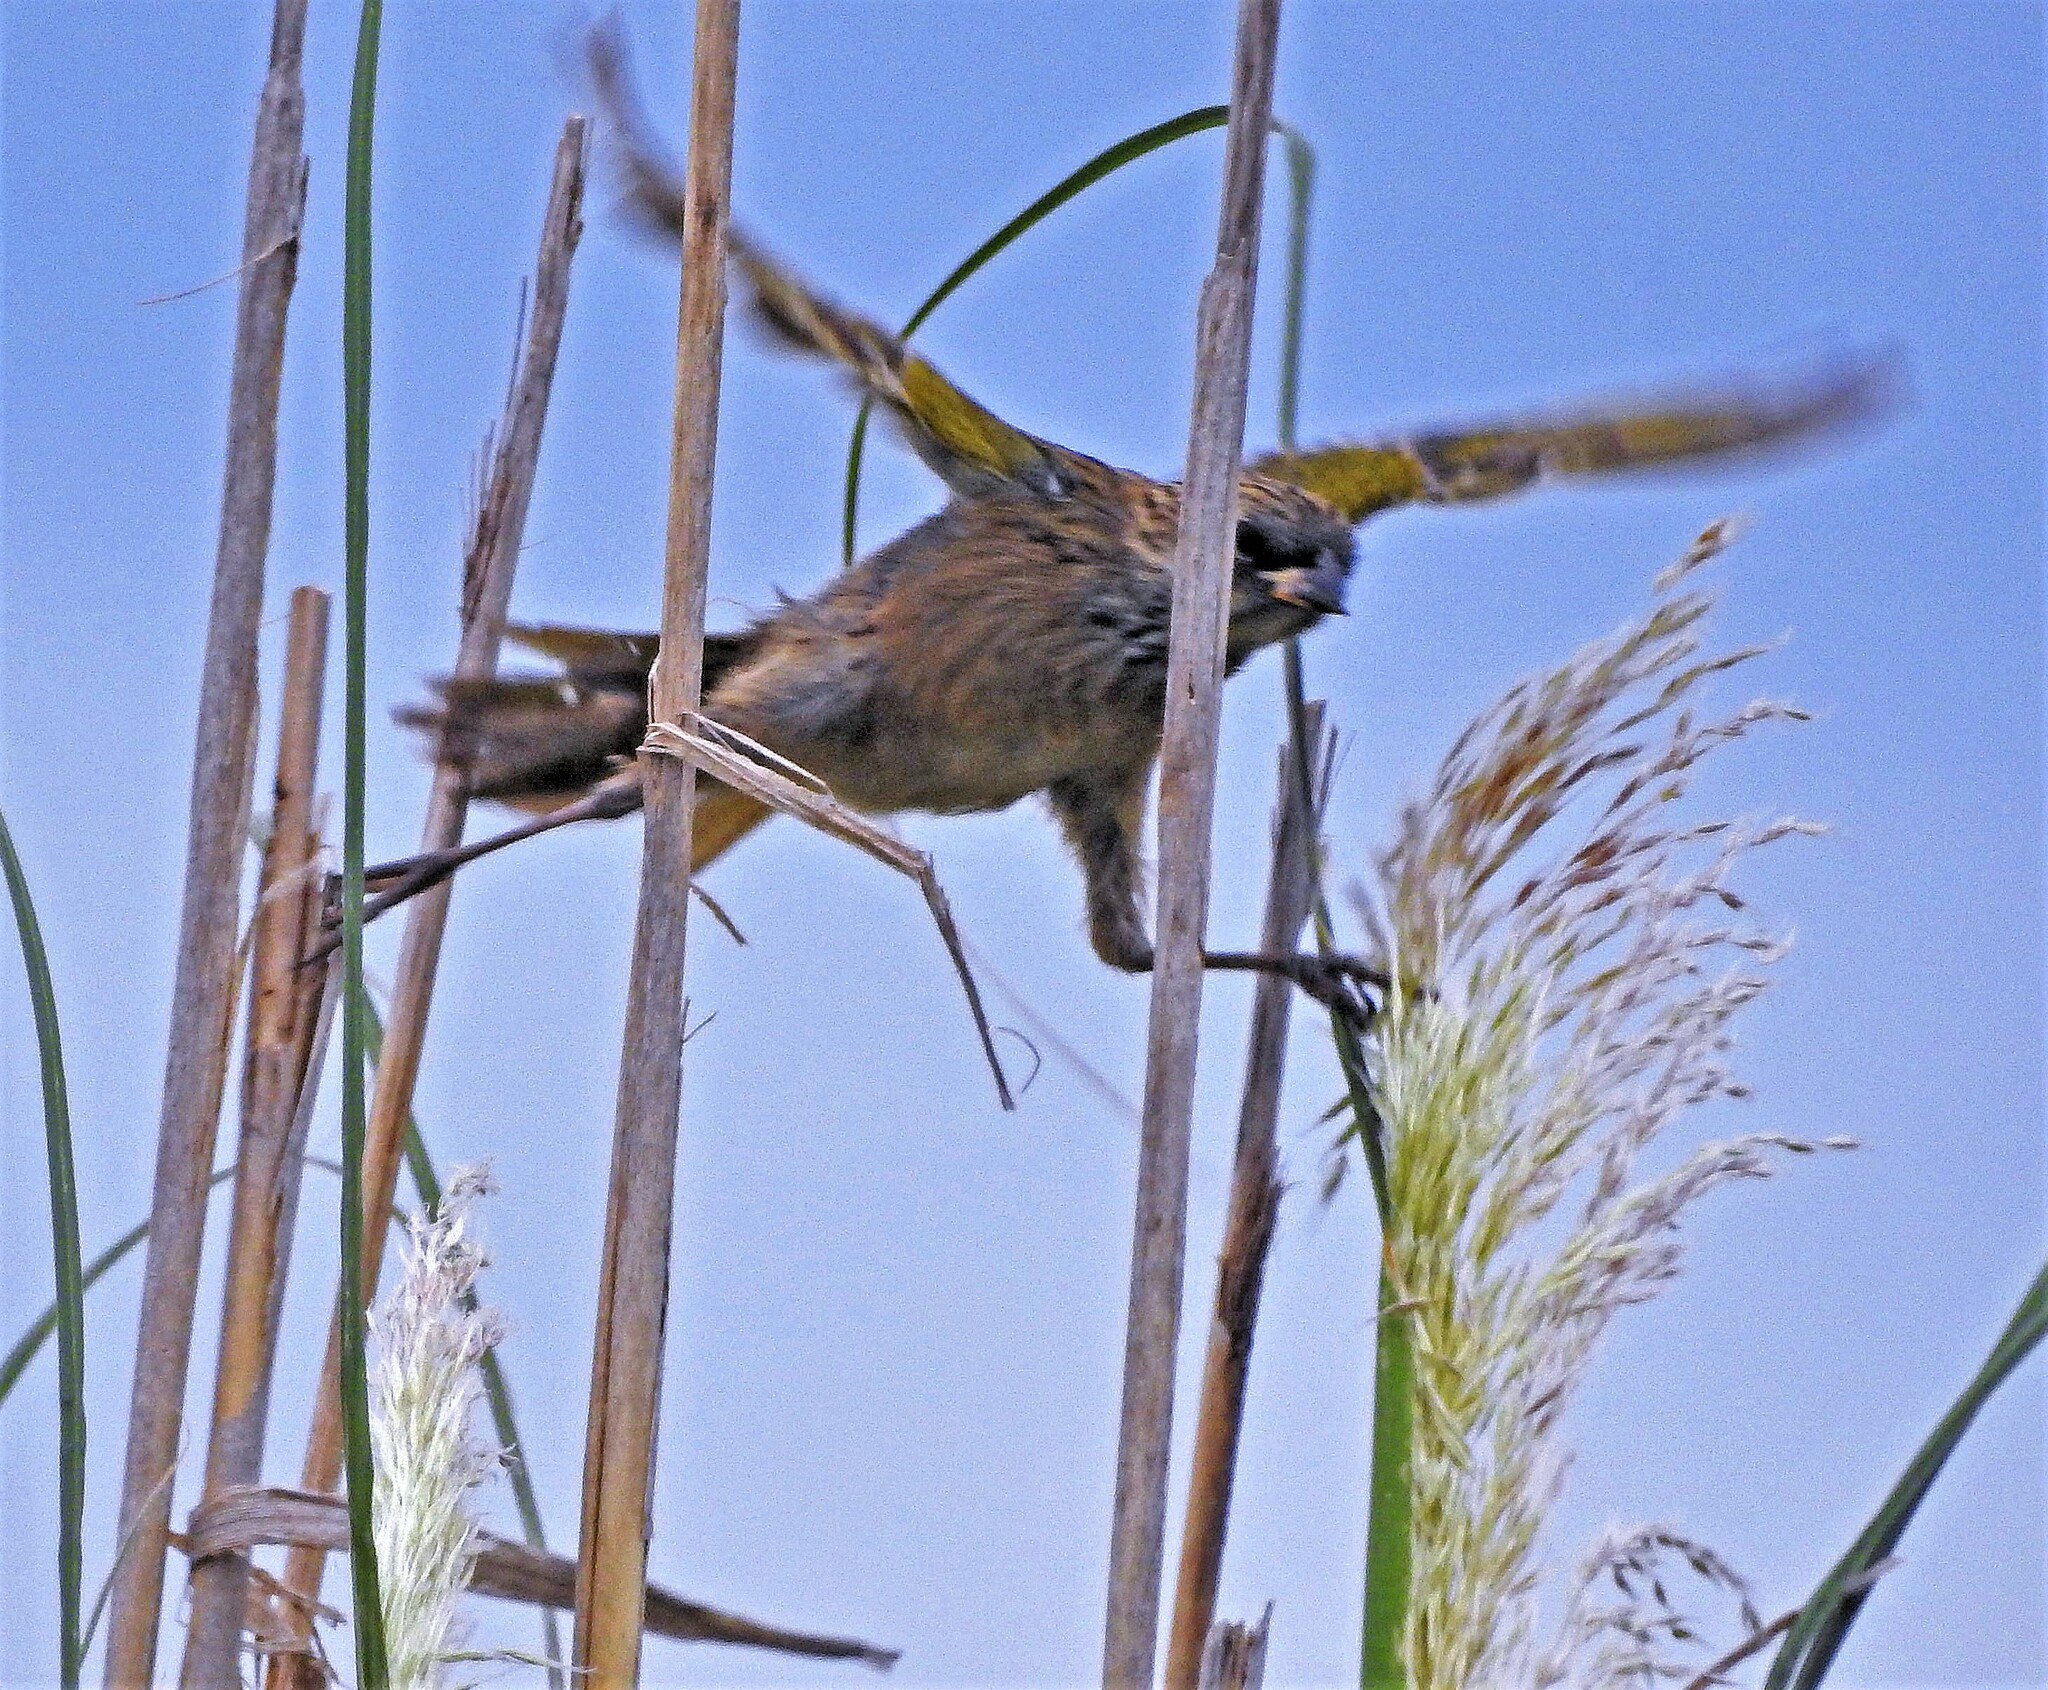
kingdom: Animalia
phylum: Chordata
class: Aves
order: Passeriformes
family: Thraupidae
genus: Embernagra
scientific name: Embernagra platensis
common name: Pampa finch
